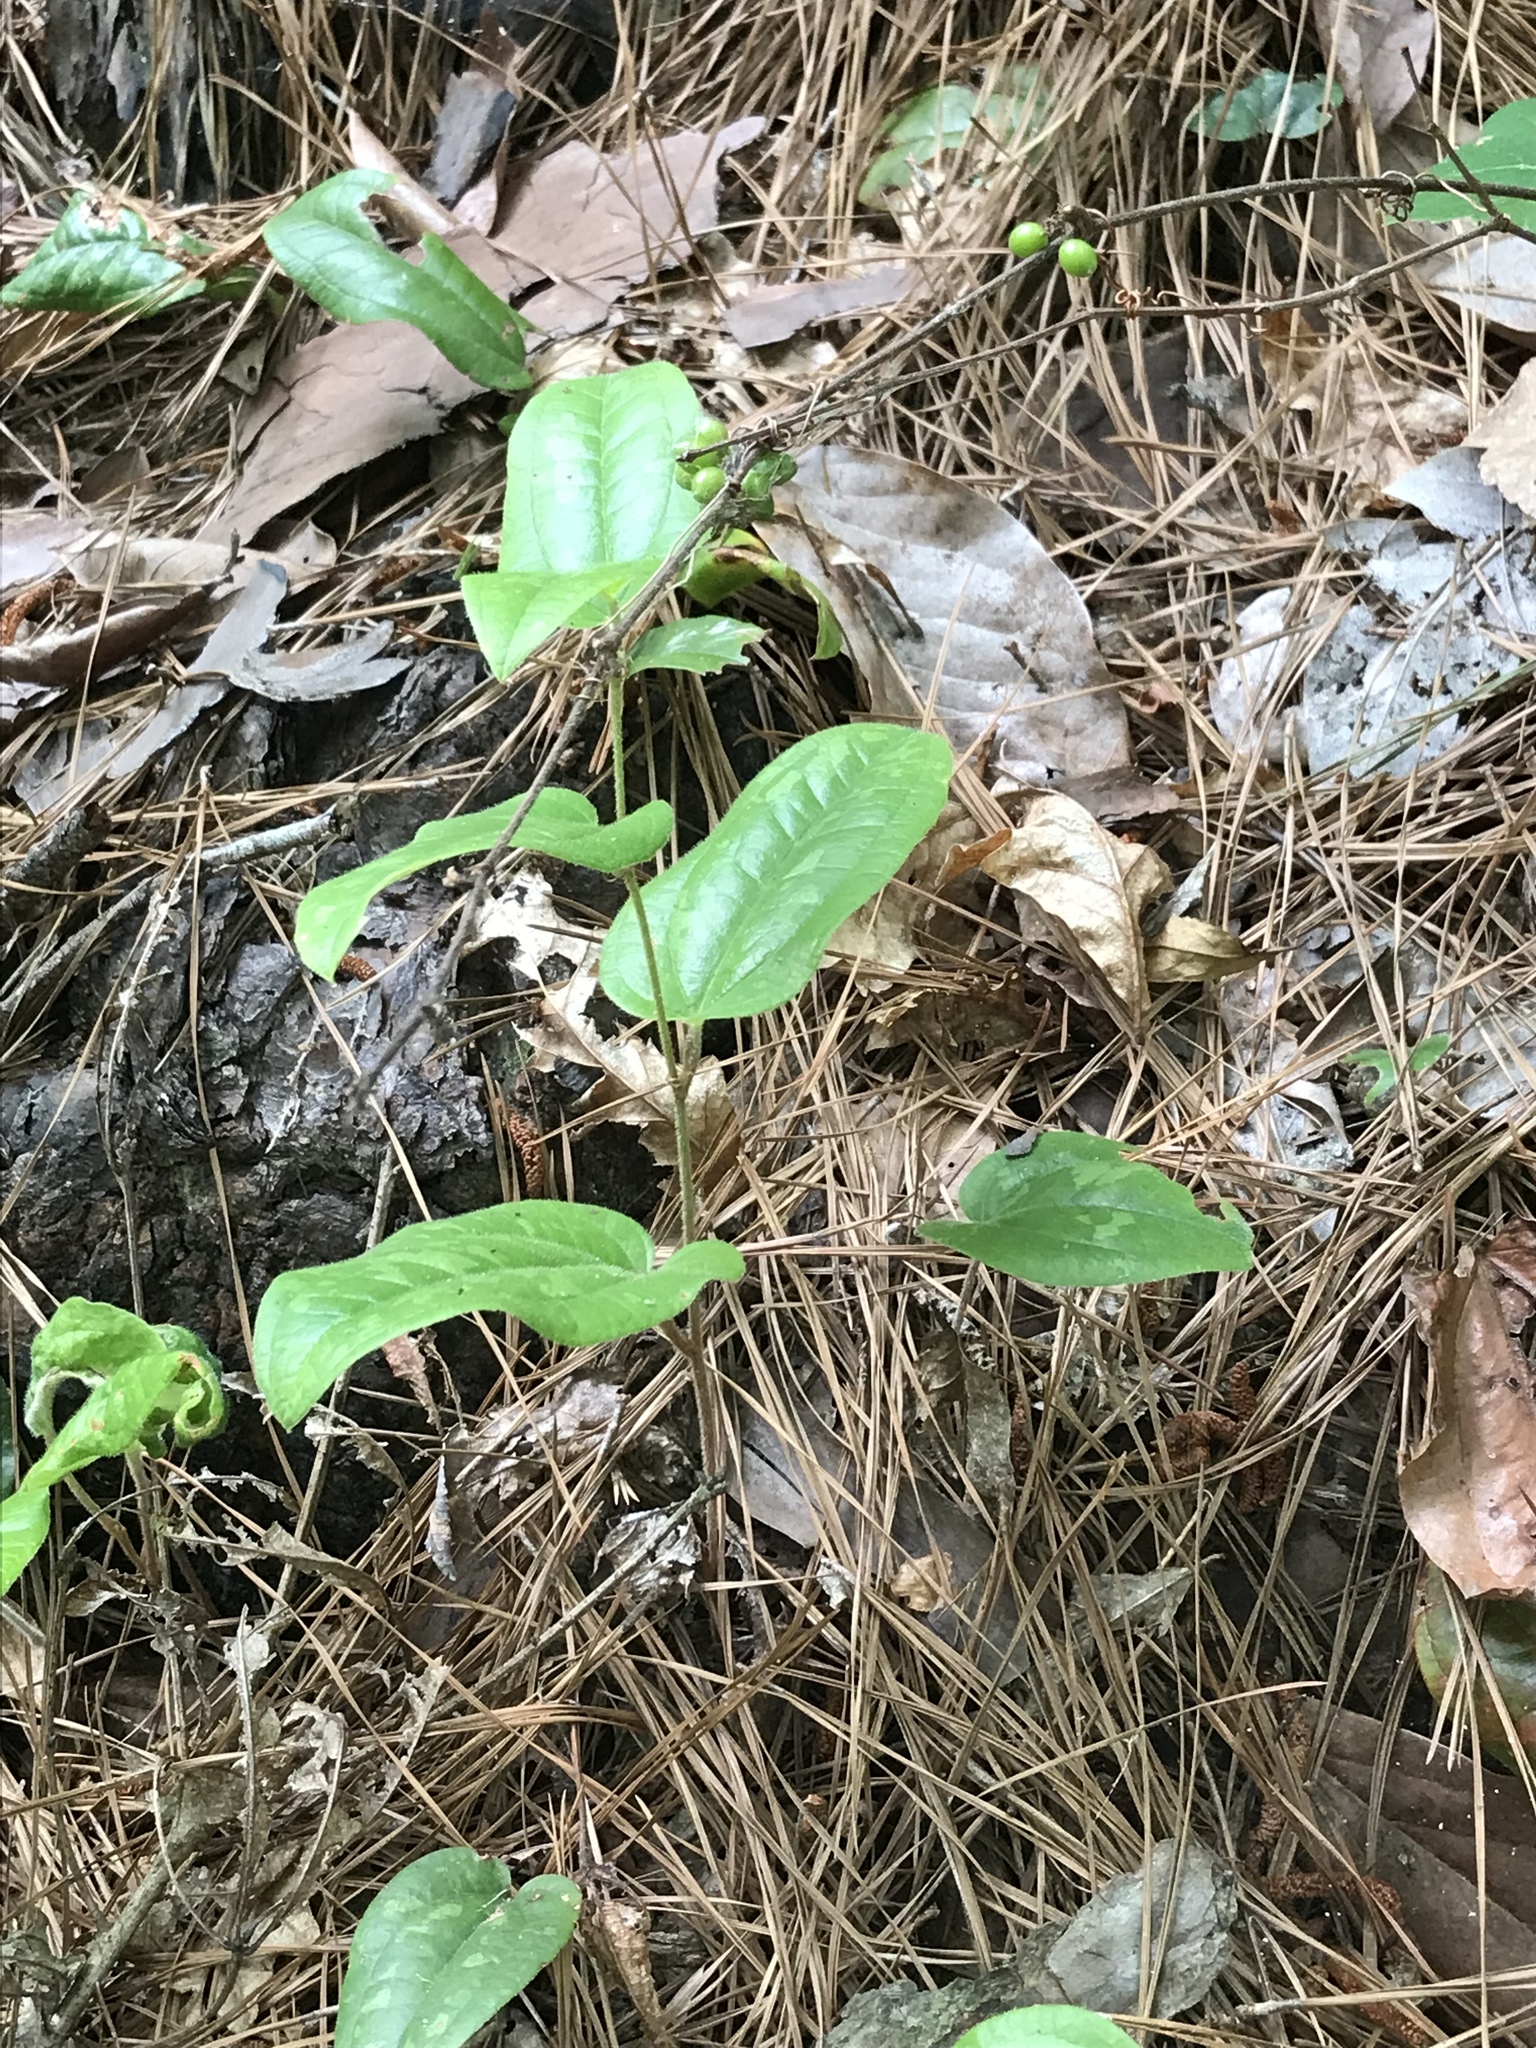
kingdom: Plantae
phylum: Tracheophyta
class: Liliopsida
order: Liliales
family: Smilacaceae
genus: Smilax
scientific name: Smilax pumila
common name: Sarsaparilla-vine
